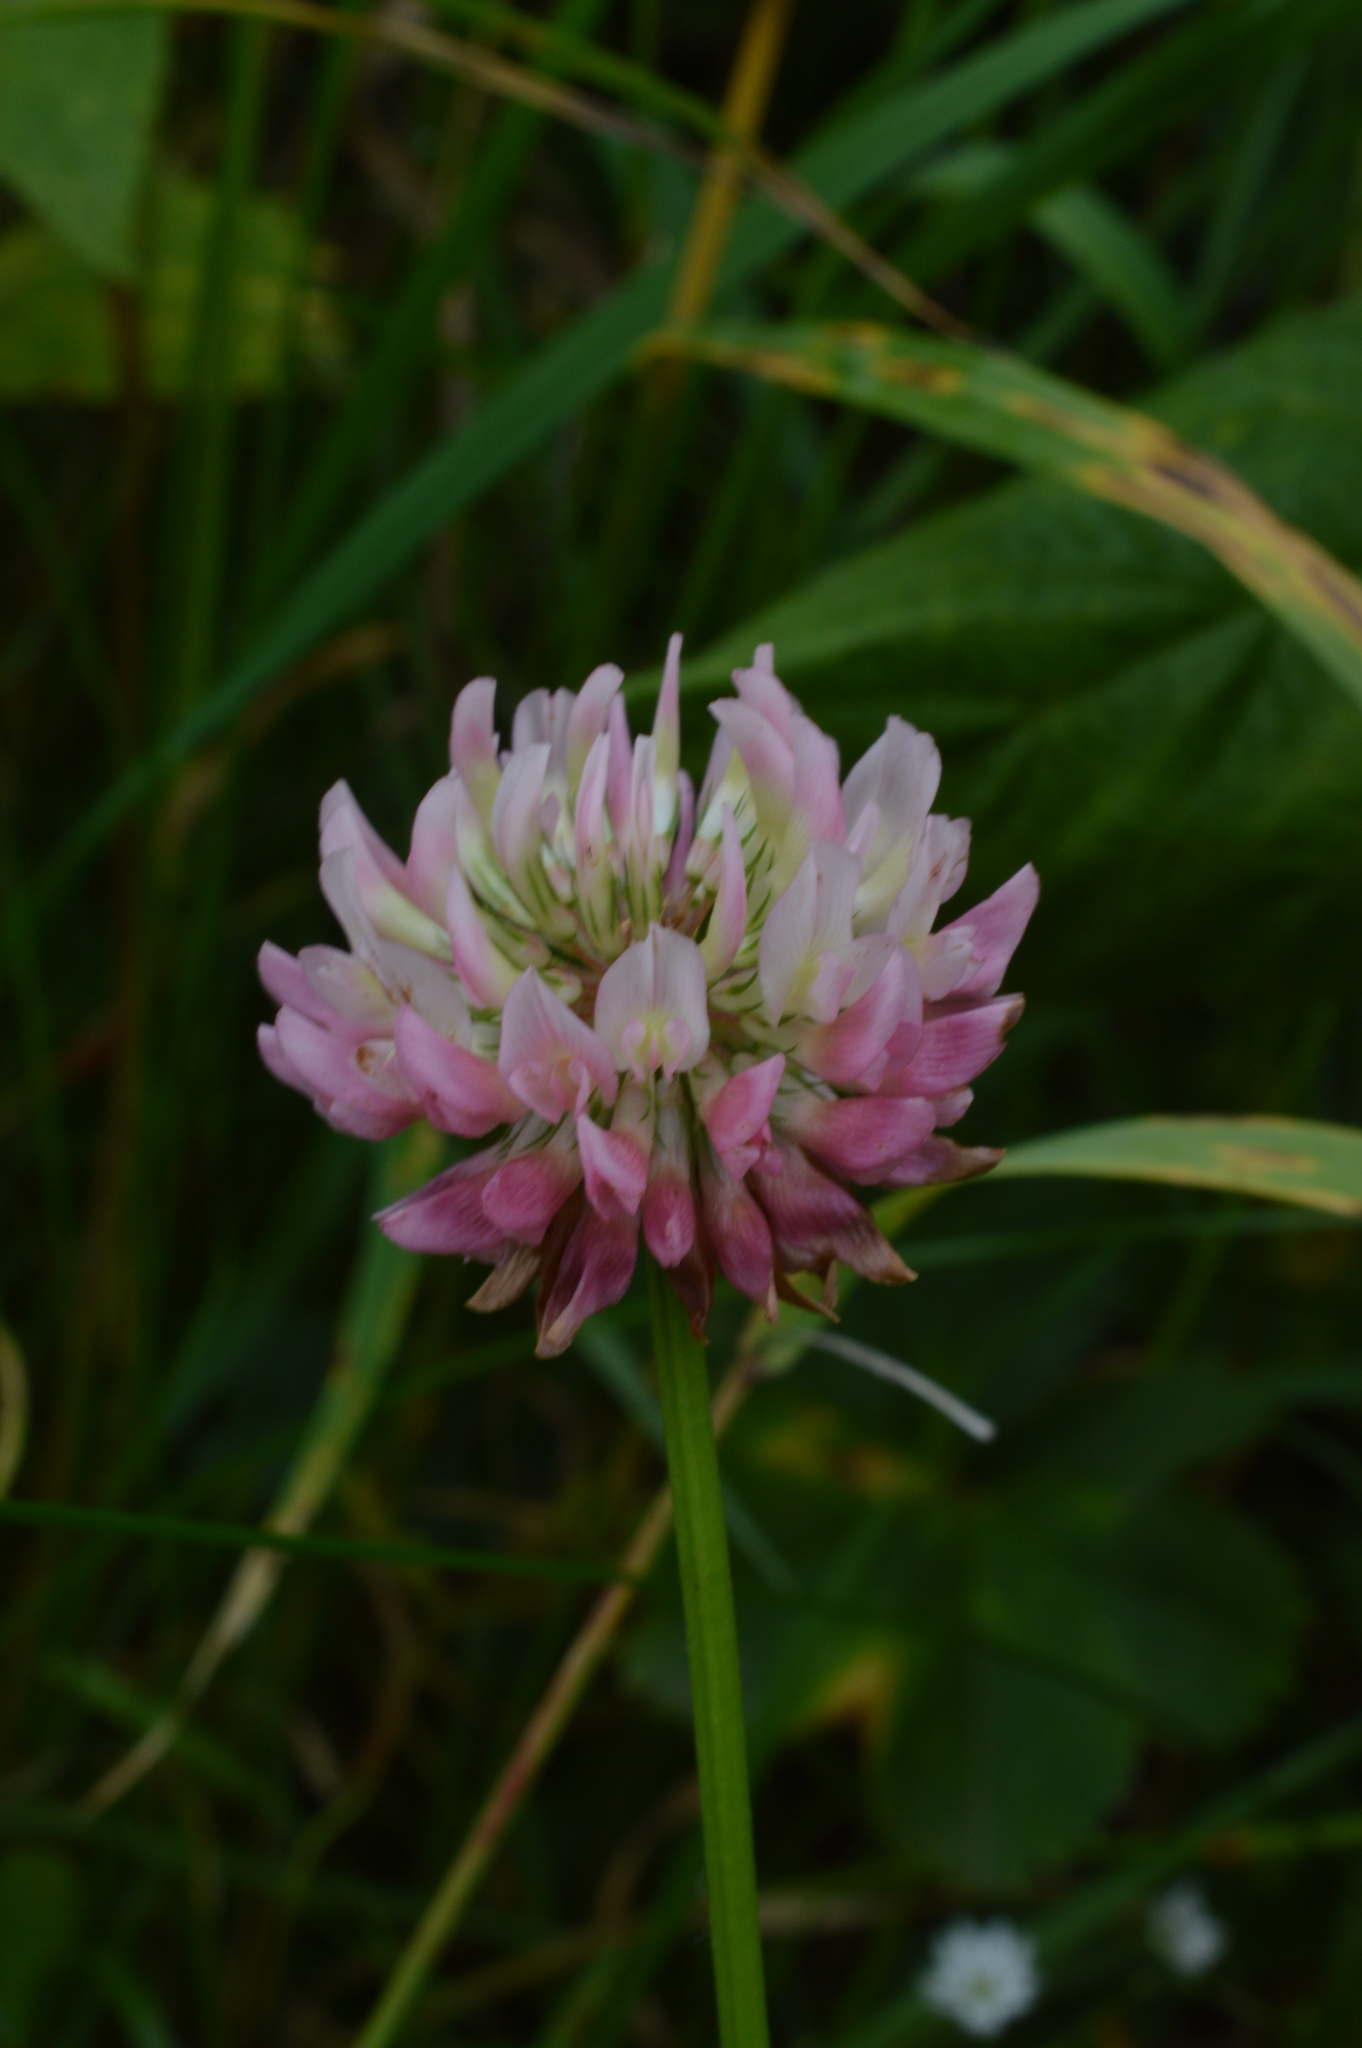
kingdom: Plantae
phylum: Tracheophyta
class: Magnoliopsida
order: Fabales
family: Fabaceae
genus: Trifolium
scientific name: Trifolium hybridum
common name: Alsike clover
